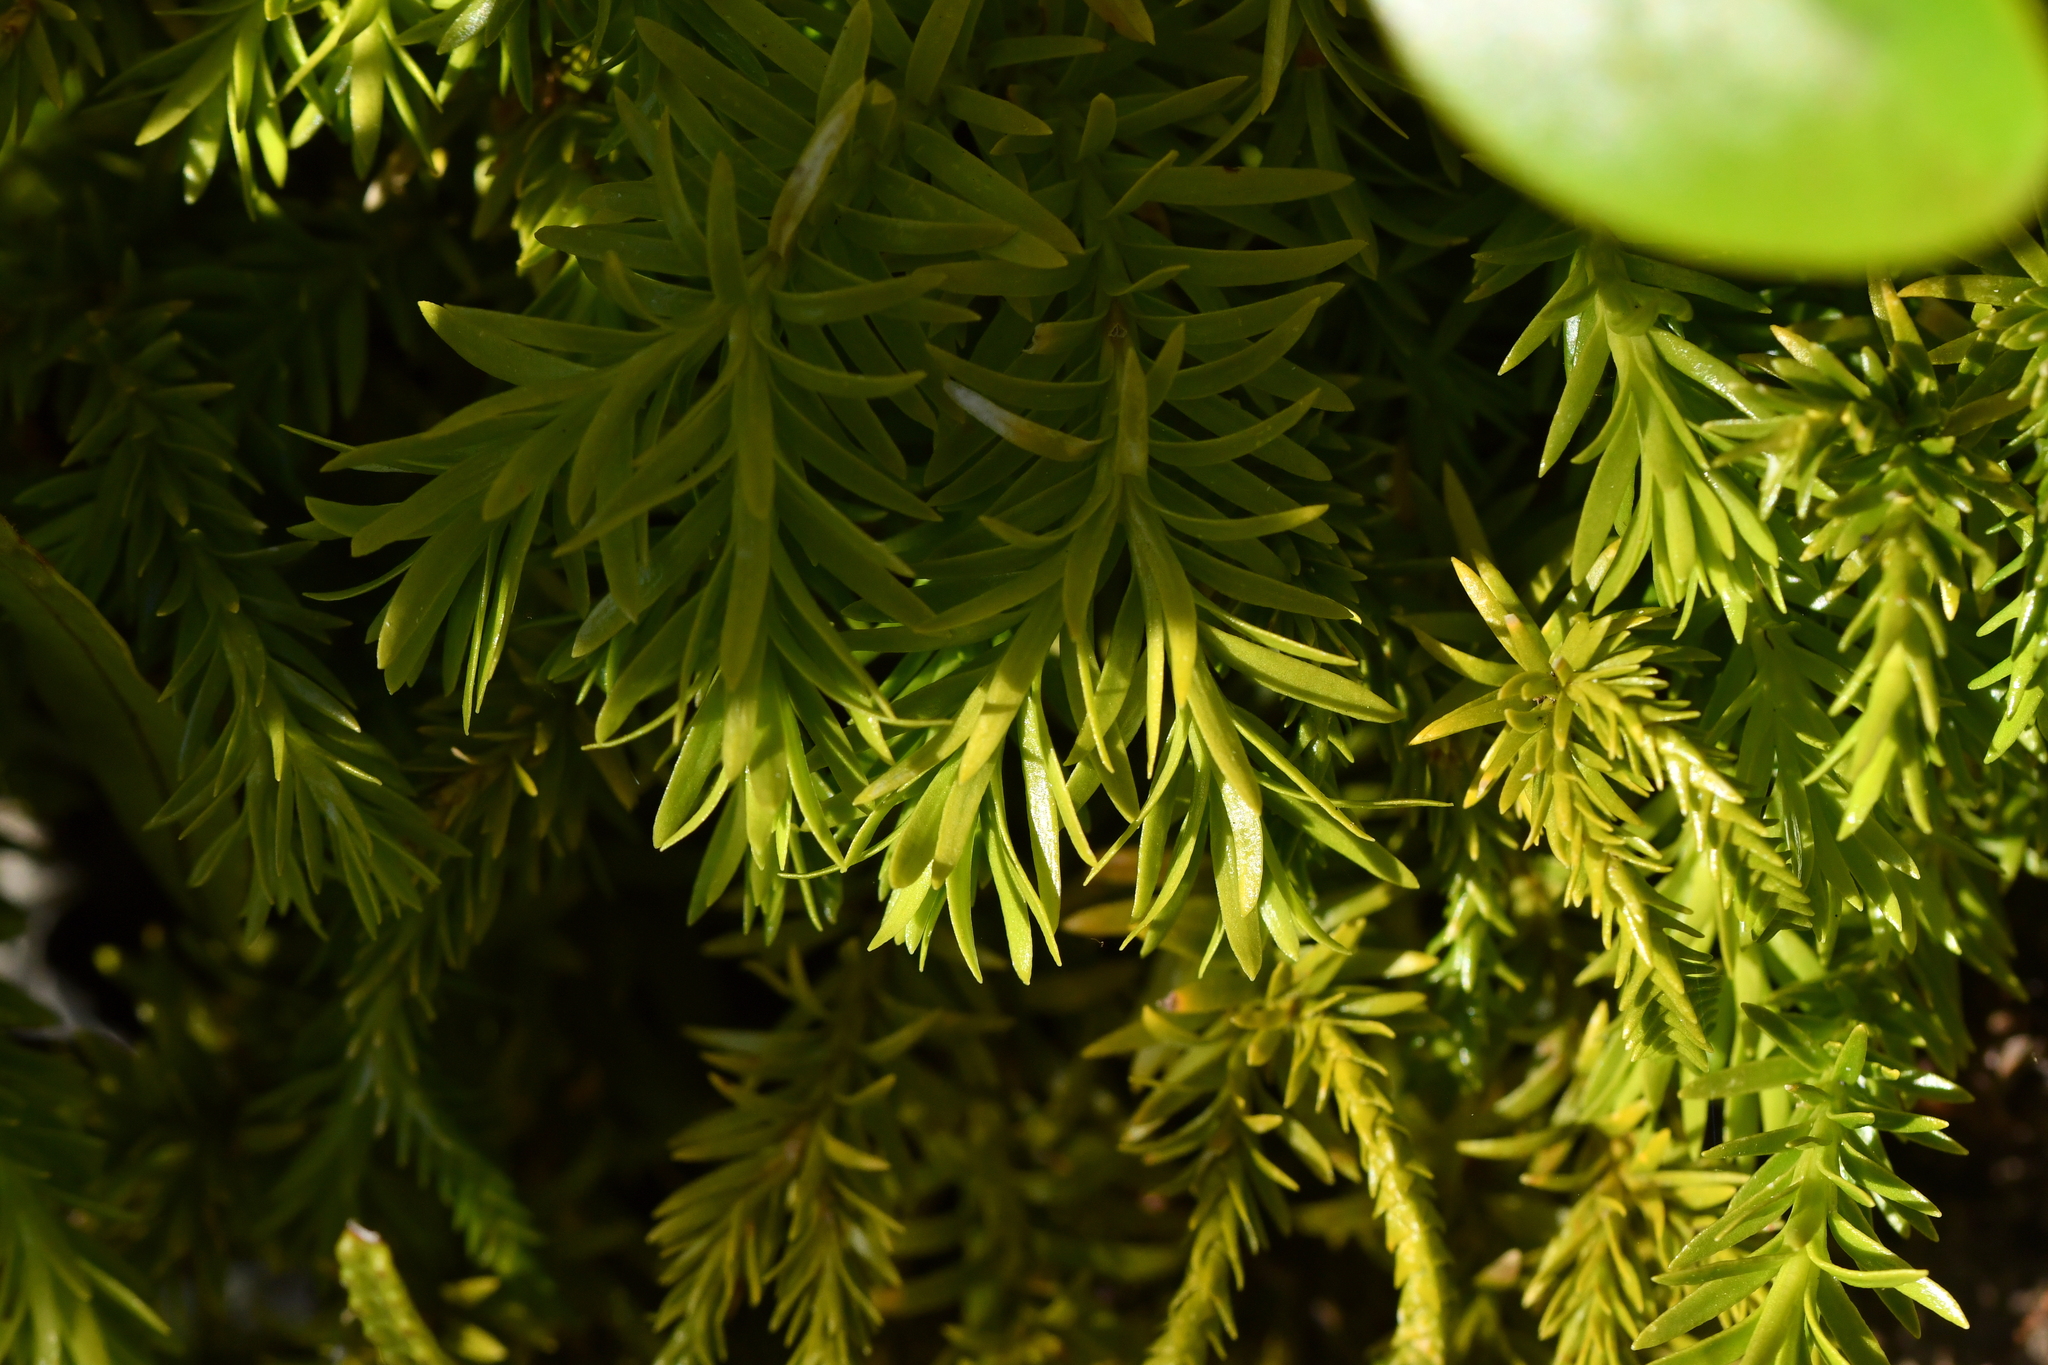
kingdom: Plantae
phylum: Tracheophyta
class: Lycopodiopsida
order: Lycopodiales
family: Lycopodiaceae
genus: Phlegmariurus
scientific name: Phlegmariurus varius
